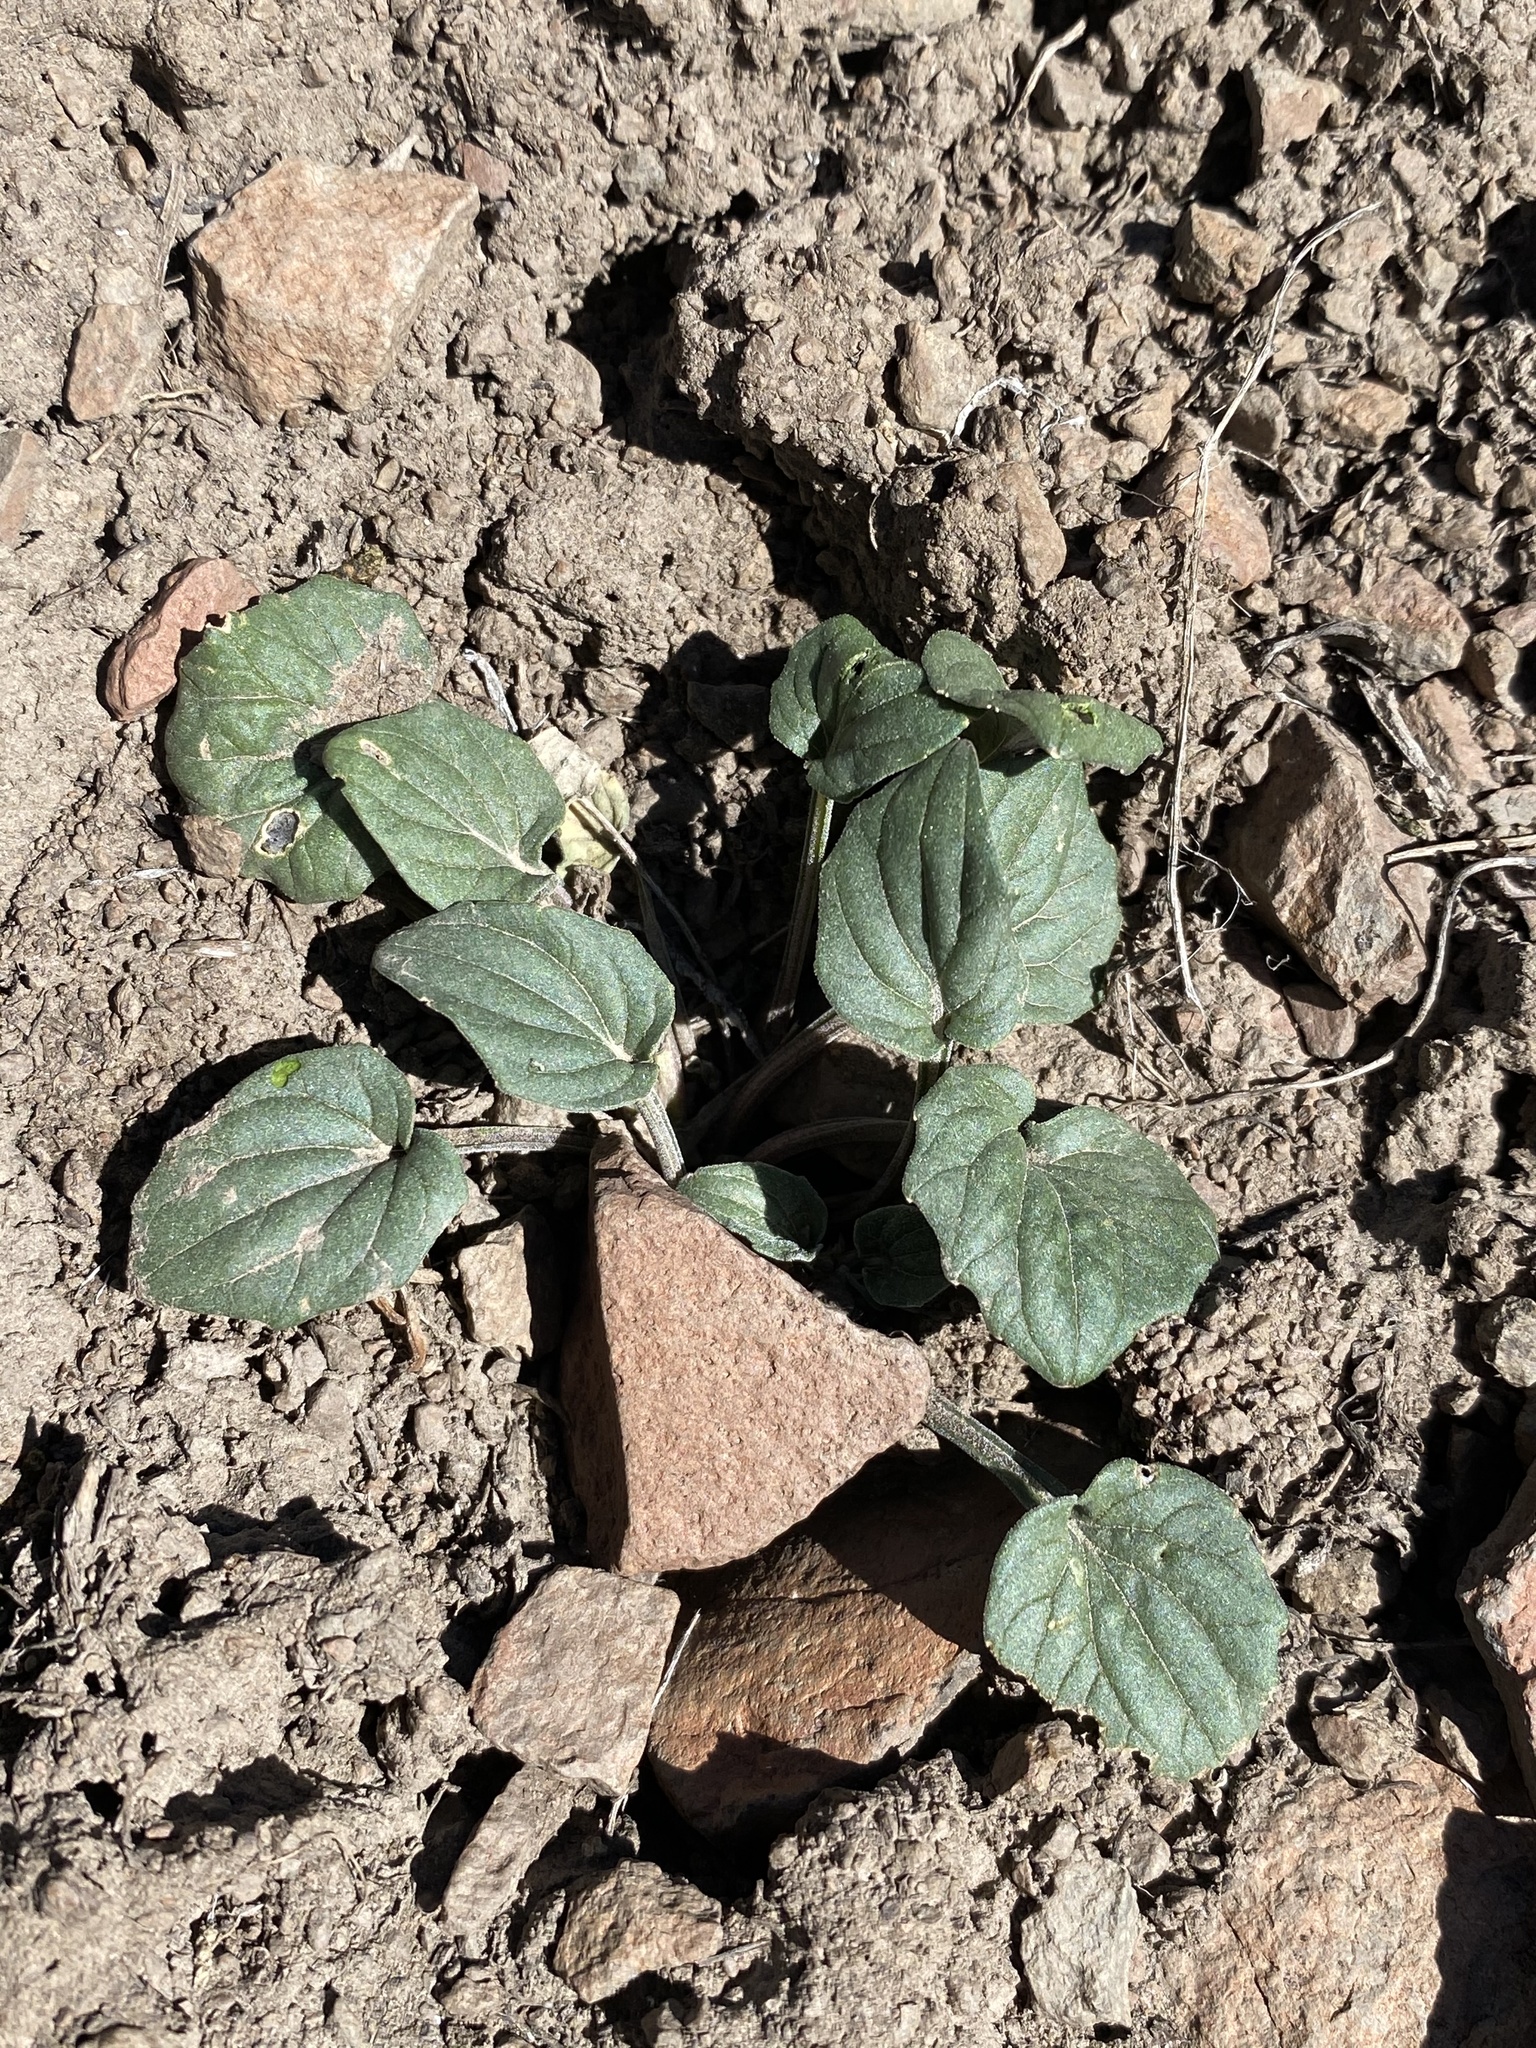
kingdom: Plantae
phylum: Tracheophyta
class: Magnoliopsida
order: Malpighiales
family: Violaceae
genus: Viola
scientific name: Viola purpurea
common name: Pine violet
